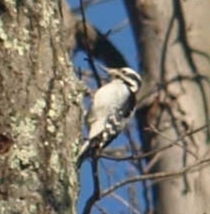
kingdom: Animalia
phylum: Chordata
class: Aves
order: Piciformes
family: Picidae
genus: Leuconotopicus
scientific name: Leuconotopicus villosus
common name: Hairy woodpecker
